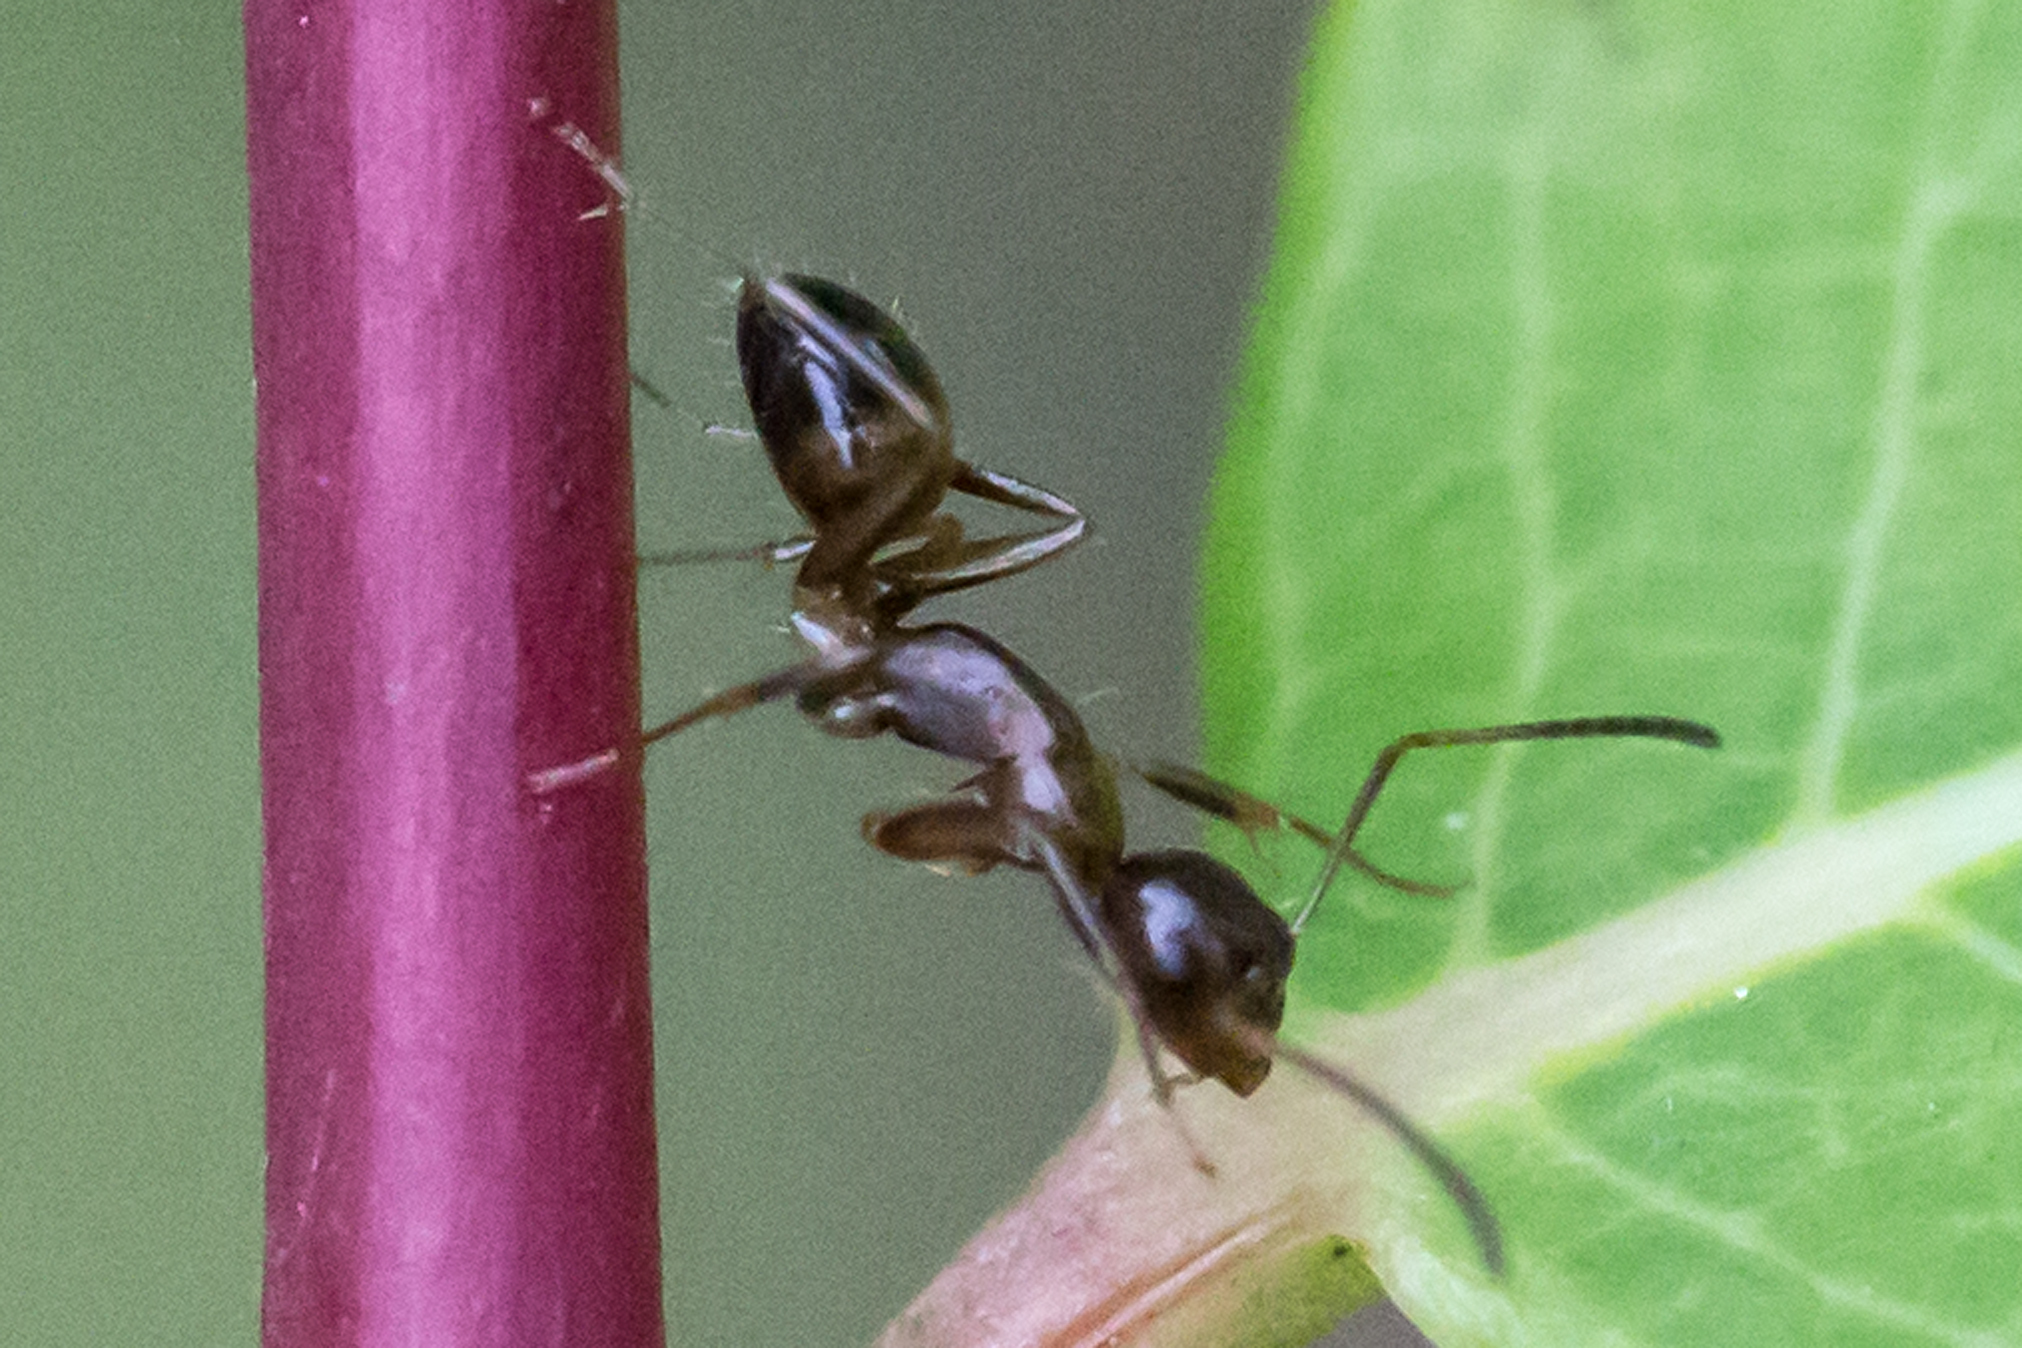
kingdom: Animalia
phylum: Arthropoda
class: Insecta
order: Hymenoptera
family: Formicidae
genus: Camponotus
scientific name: Camponotus subbarbatus
